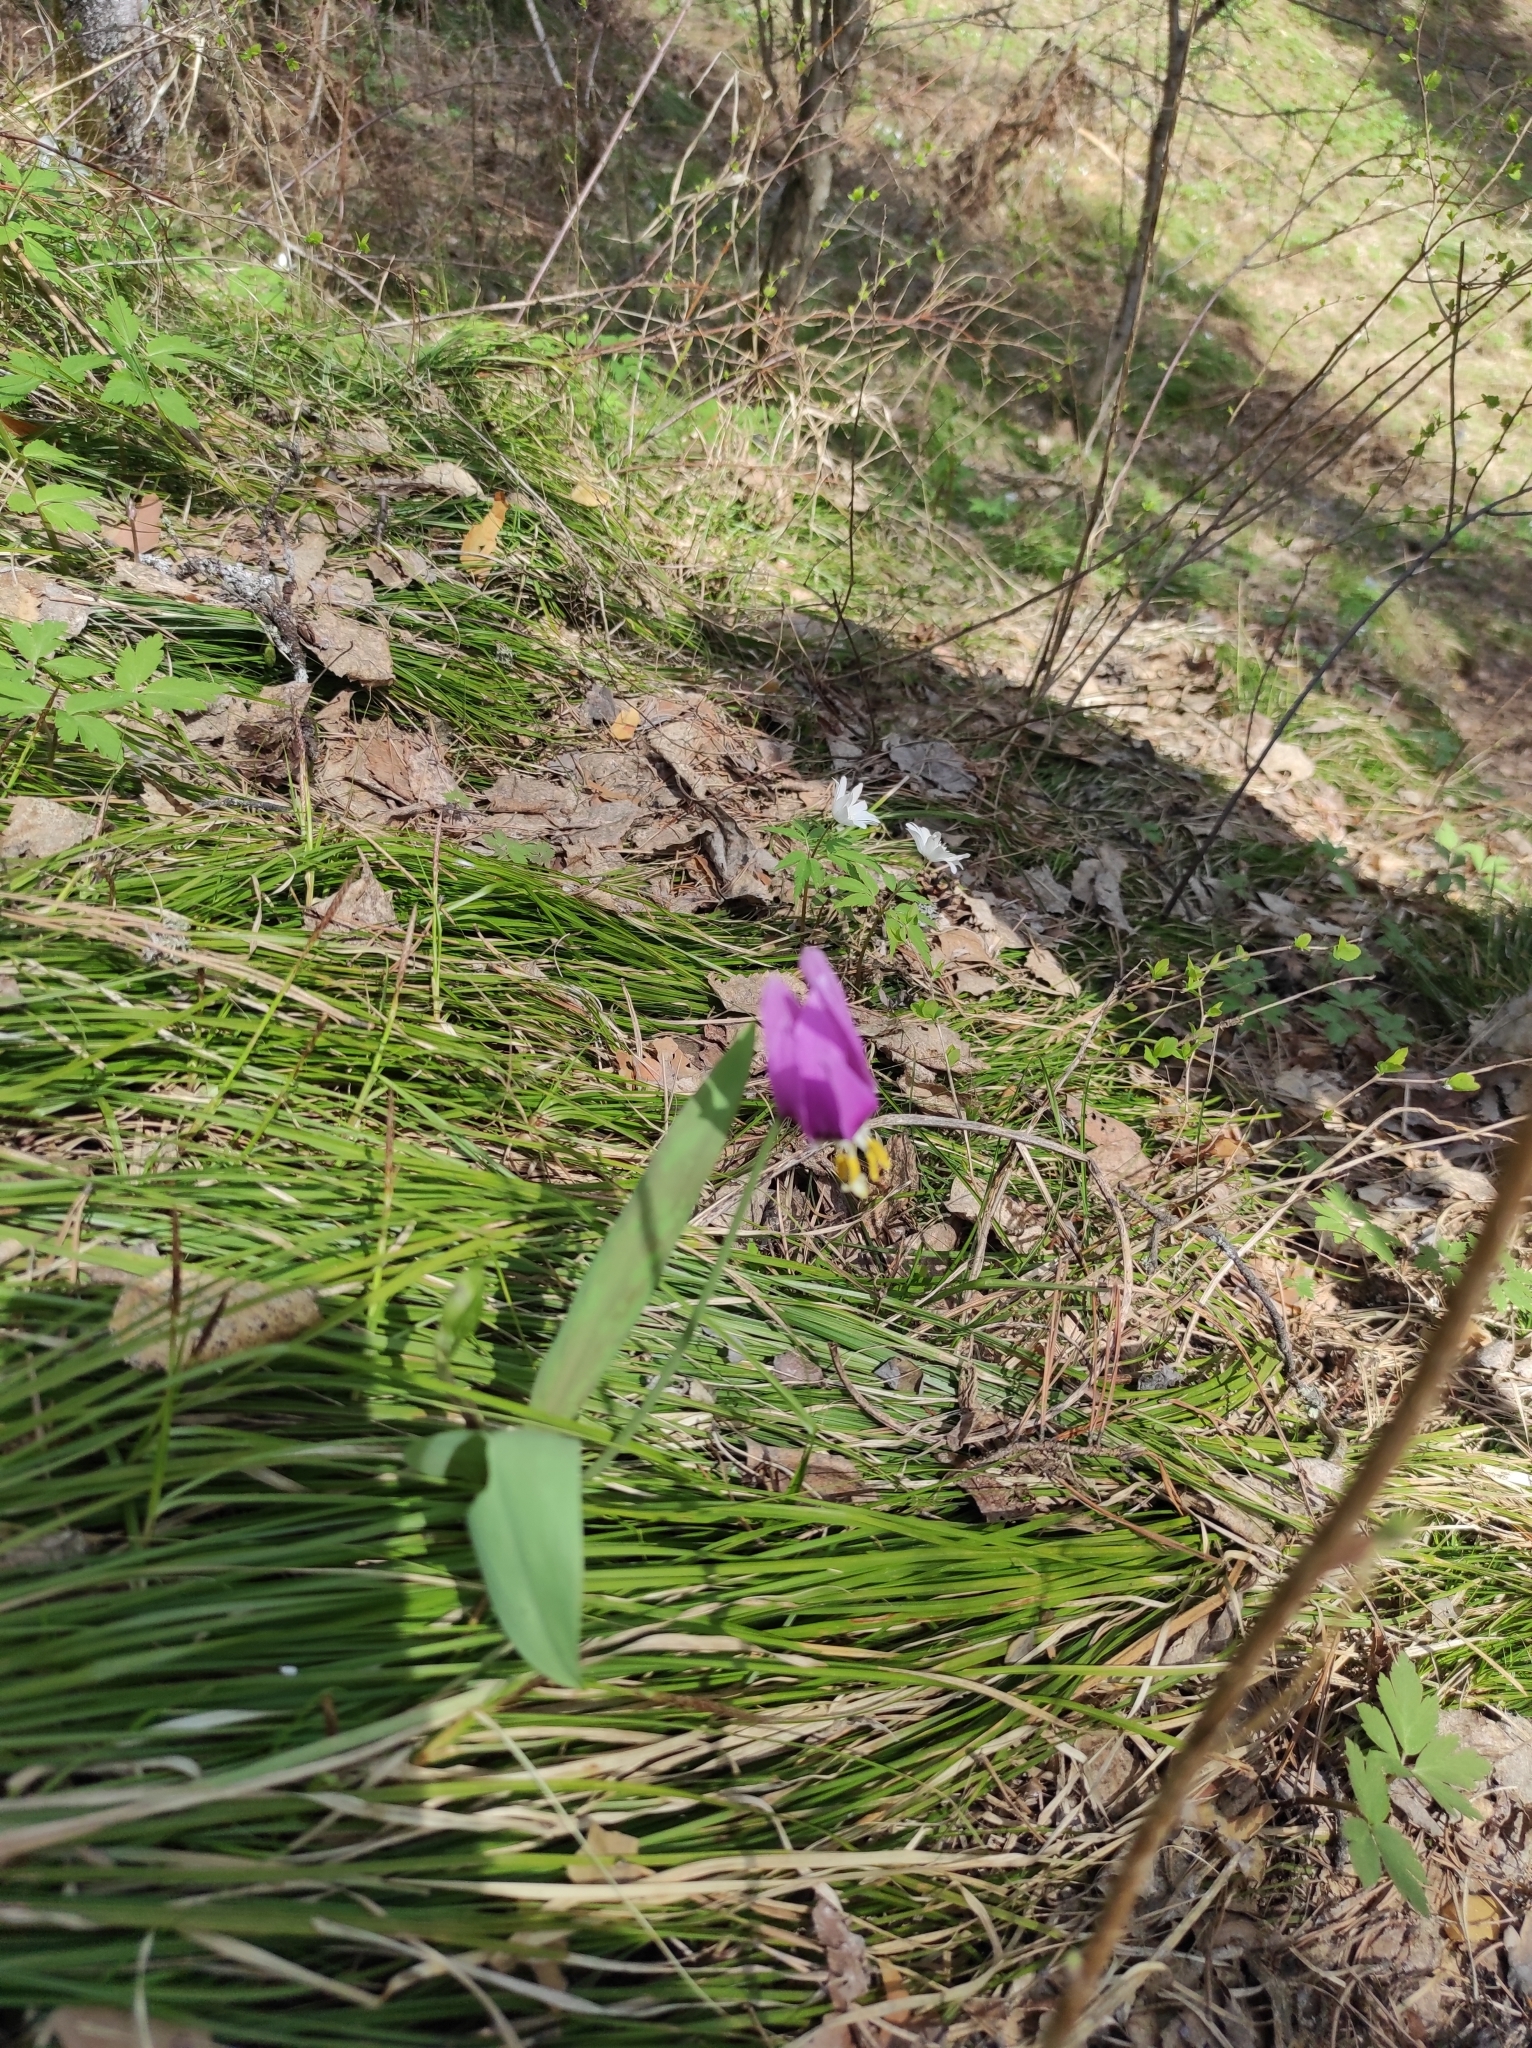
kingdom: Plantae
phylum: Tracheophyta
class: Liliopsida
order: Liliales
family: Liliaceae
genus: Erythronium
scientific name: Erythronium sibiricum
